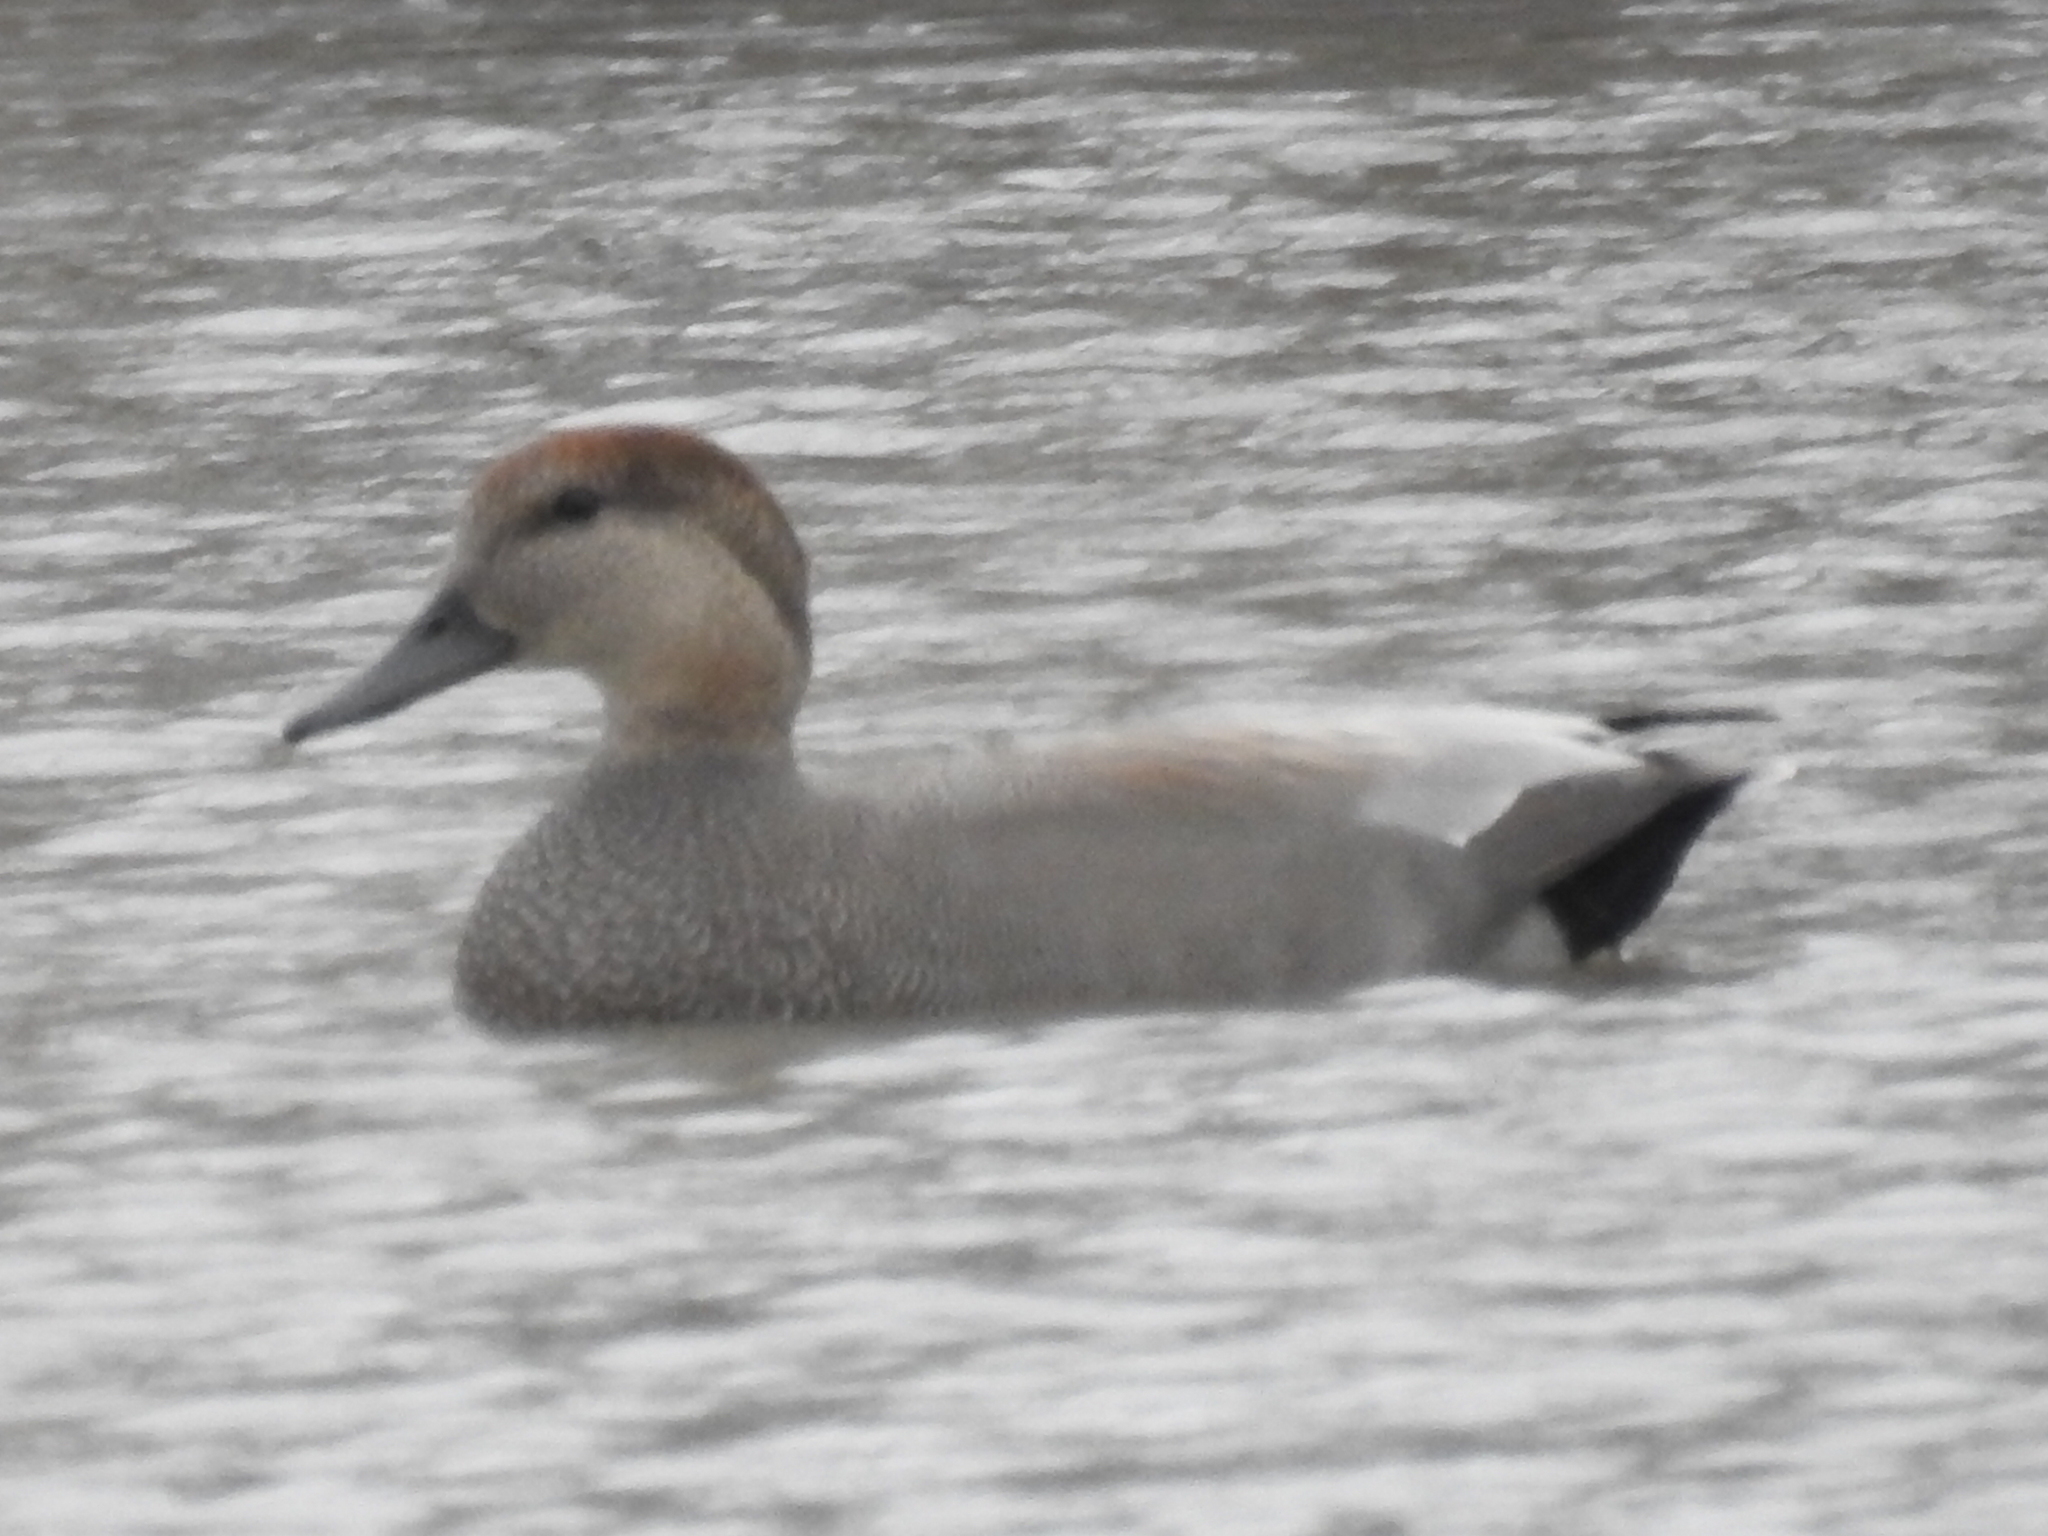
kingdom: Animalia
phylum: Chordata
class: Aves
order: Anseriformes
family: Anatidae
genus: Mareca
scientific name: Mareca strepera
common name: Gadwall
